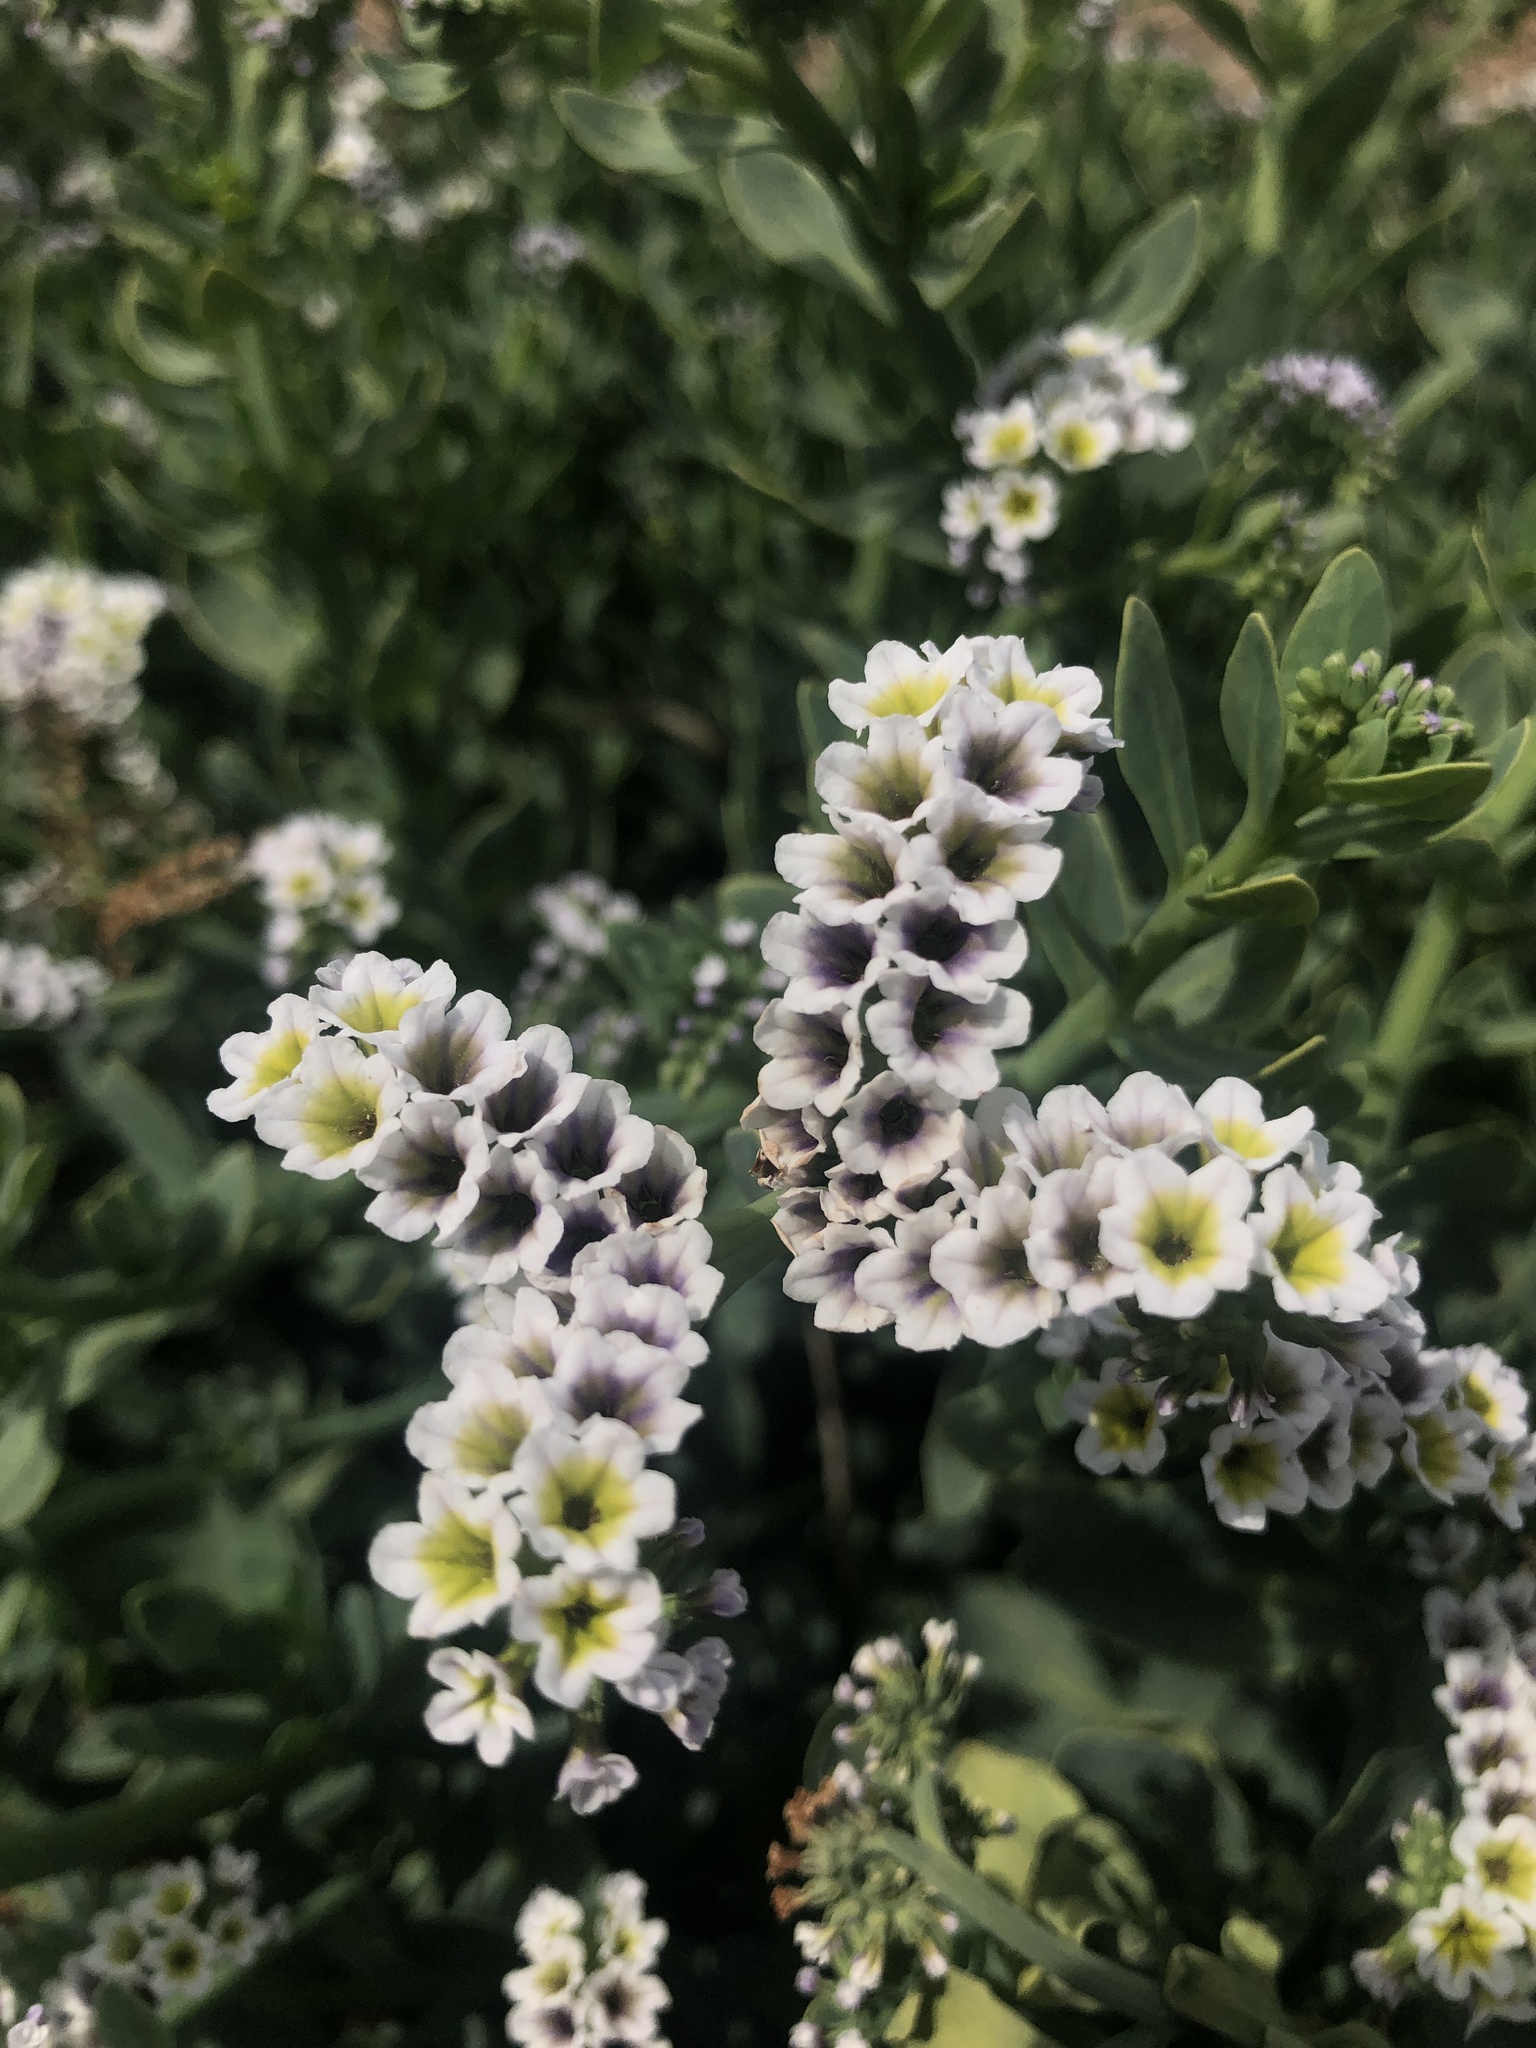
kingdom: Plantae
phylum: Tracheophyta
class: Magnoliopsida
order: Boraginales
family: Heliotropiaceae
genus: Heliotropium
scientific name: Heliotropium curassavicum
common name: Seaside heliotrope
